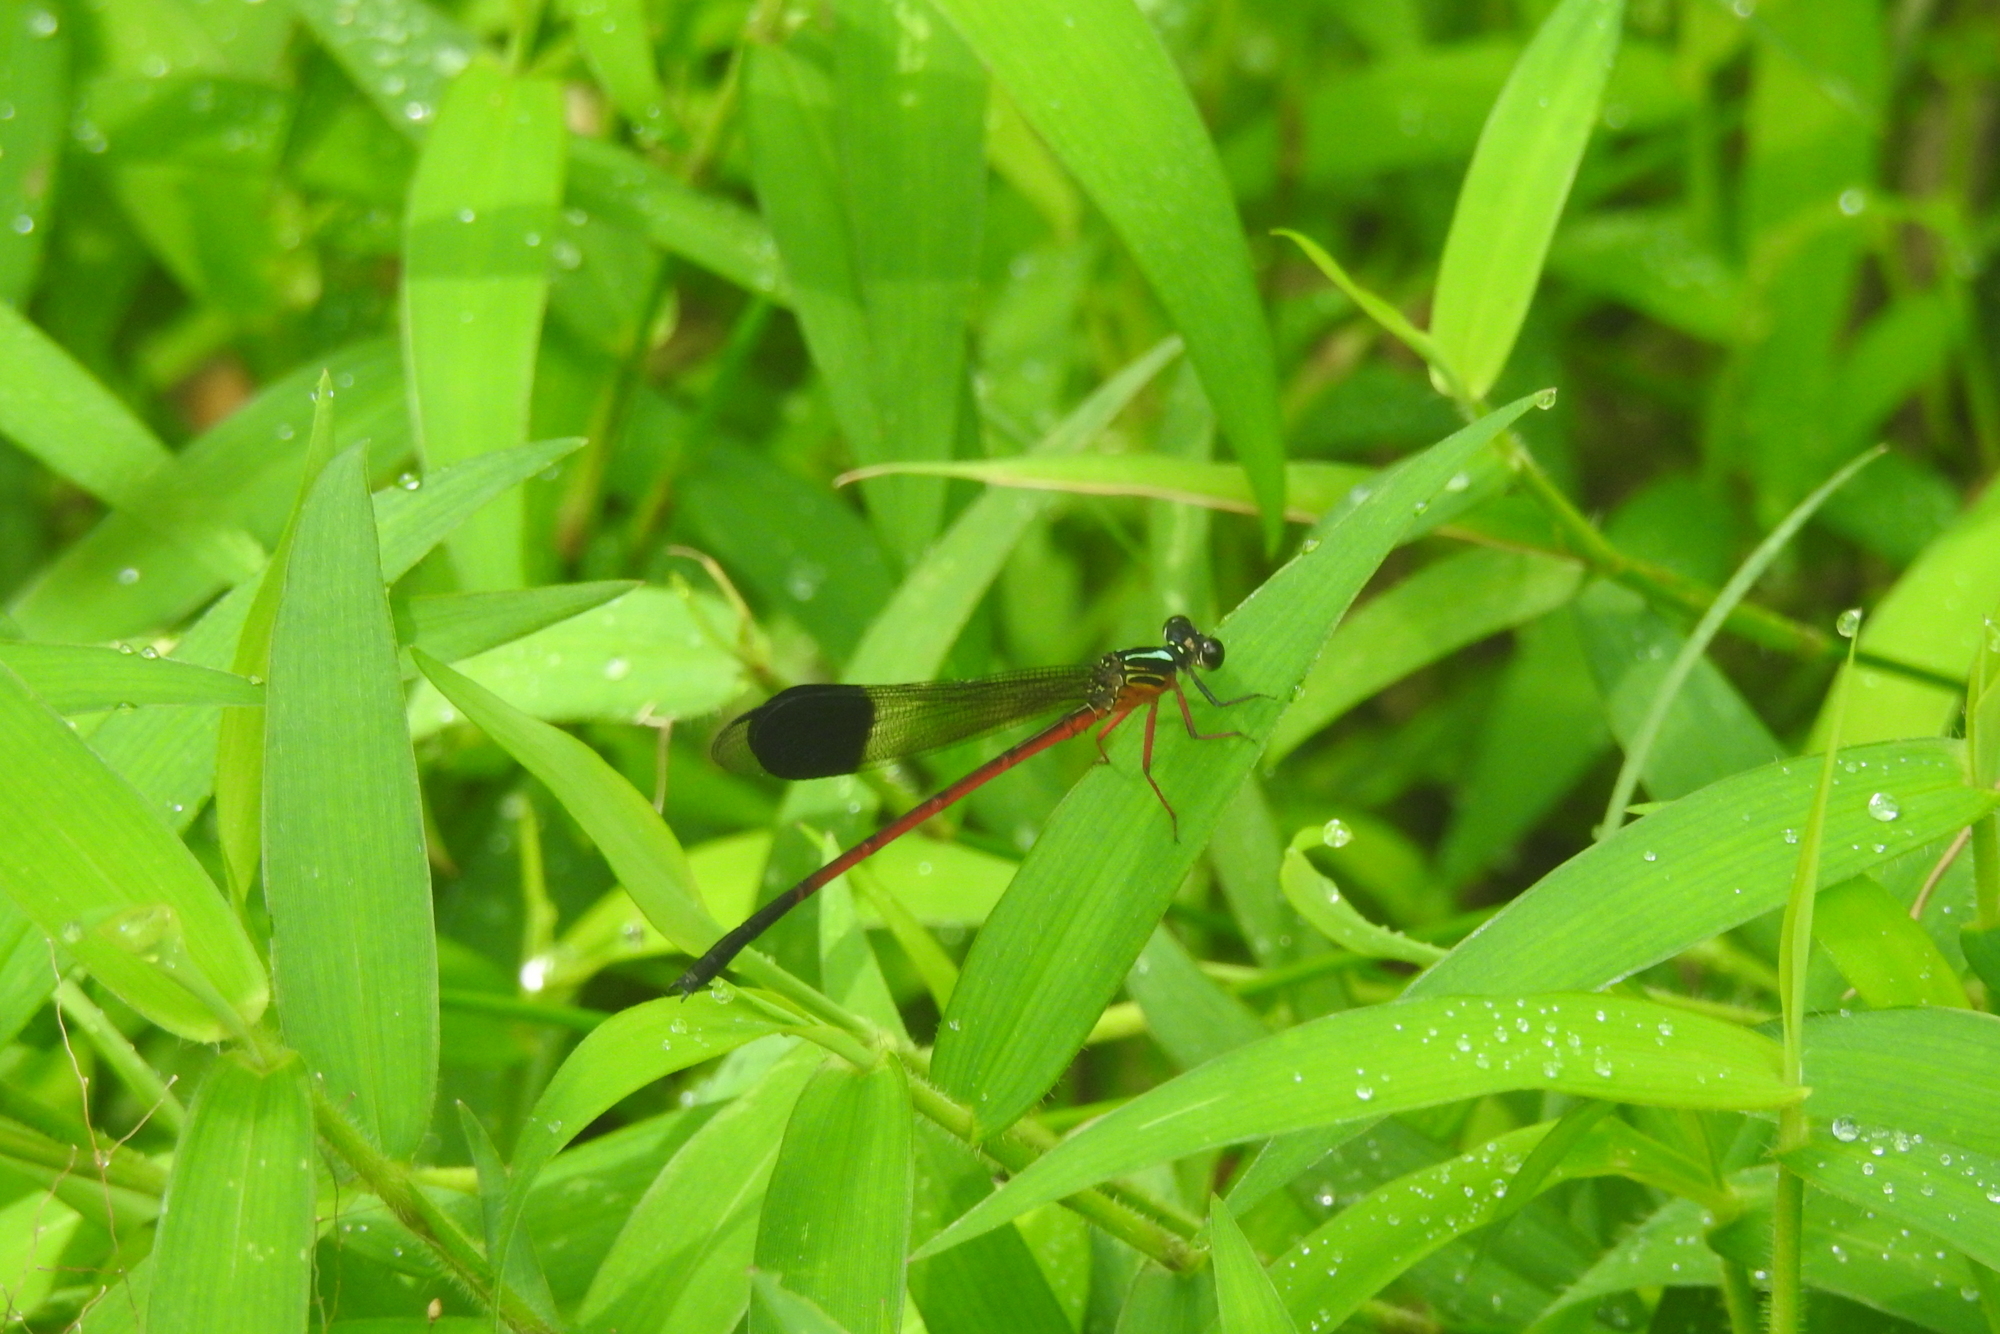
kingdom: Animalia
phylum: Arthropoda
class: Insecta
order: Odonata
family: Euphaeidae
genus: Euphaea
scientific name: Euphaea fraseri
